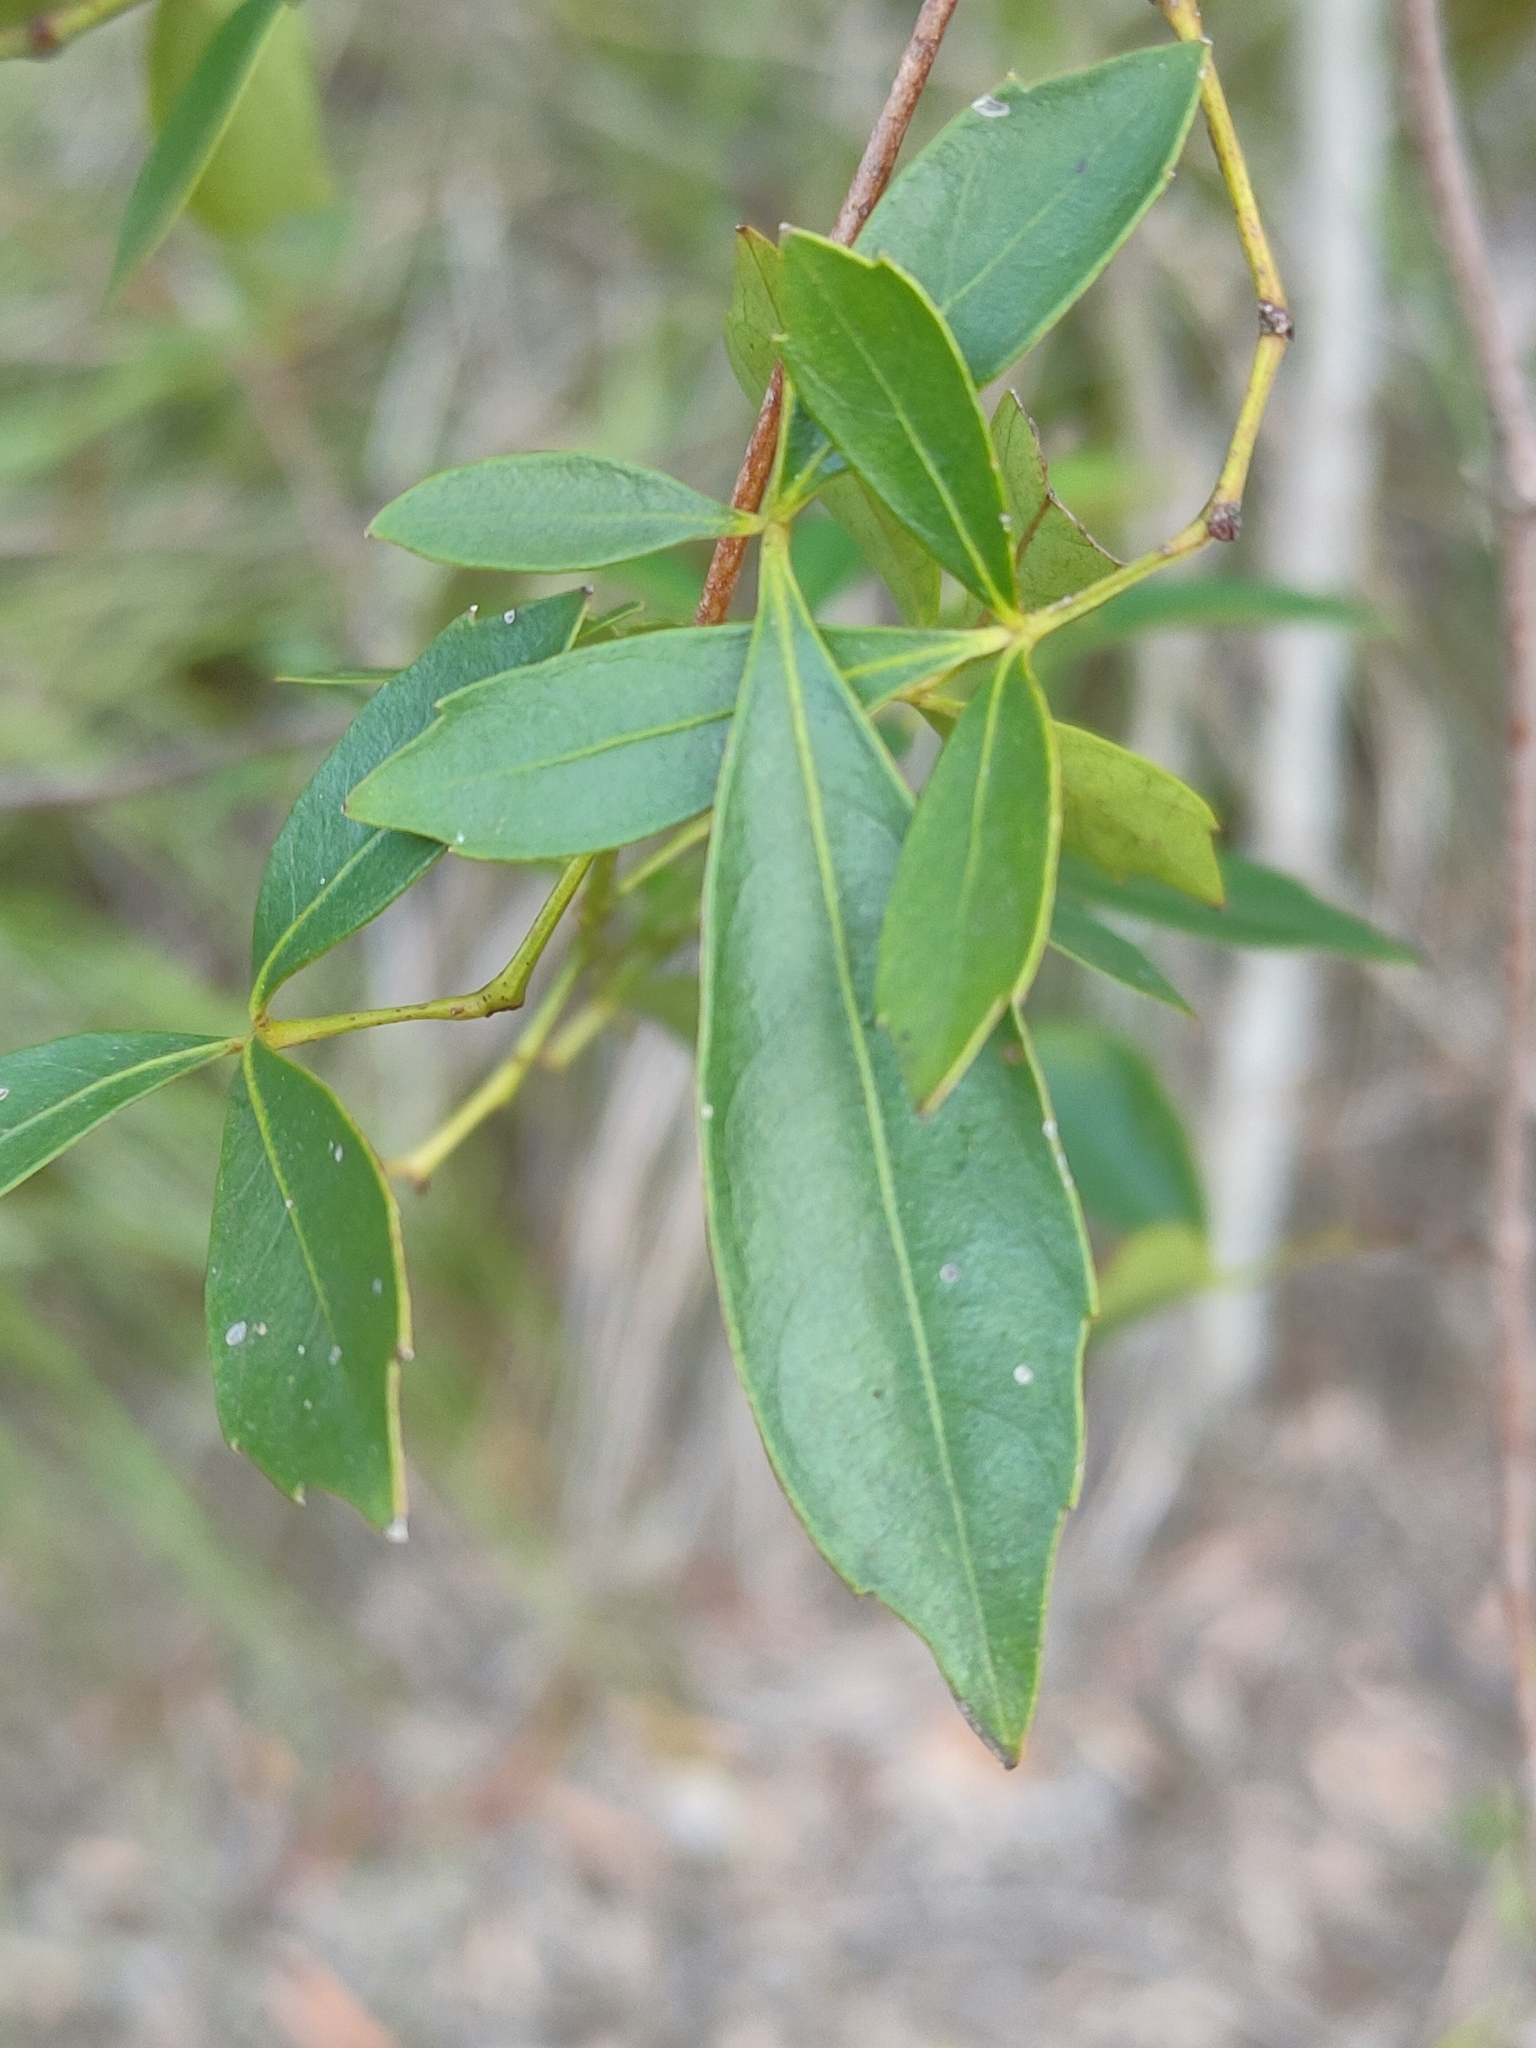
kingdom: Plantae
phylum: Tracheophyta
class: Magnoliopsida
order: Vitales
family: Vitaceae
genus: Clematicissus
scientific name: Clematicissus opaca
